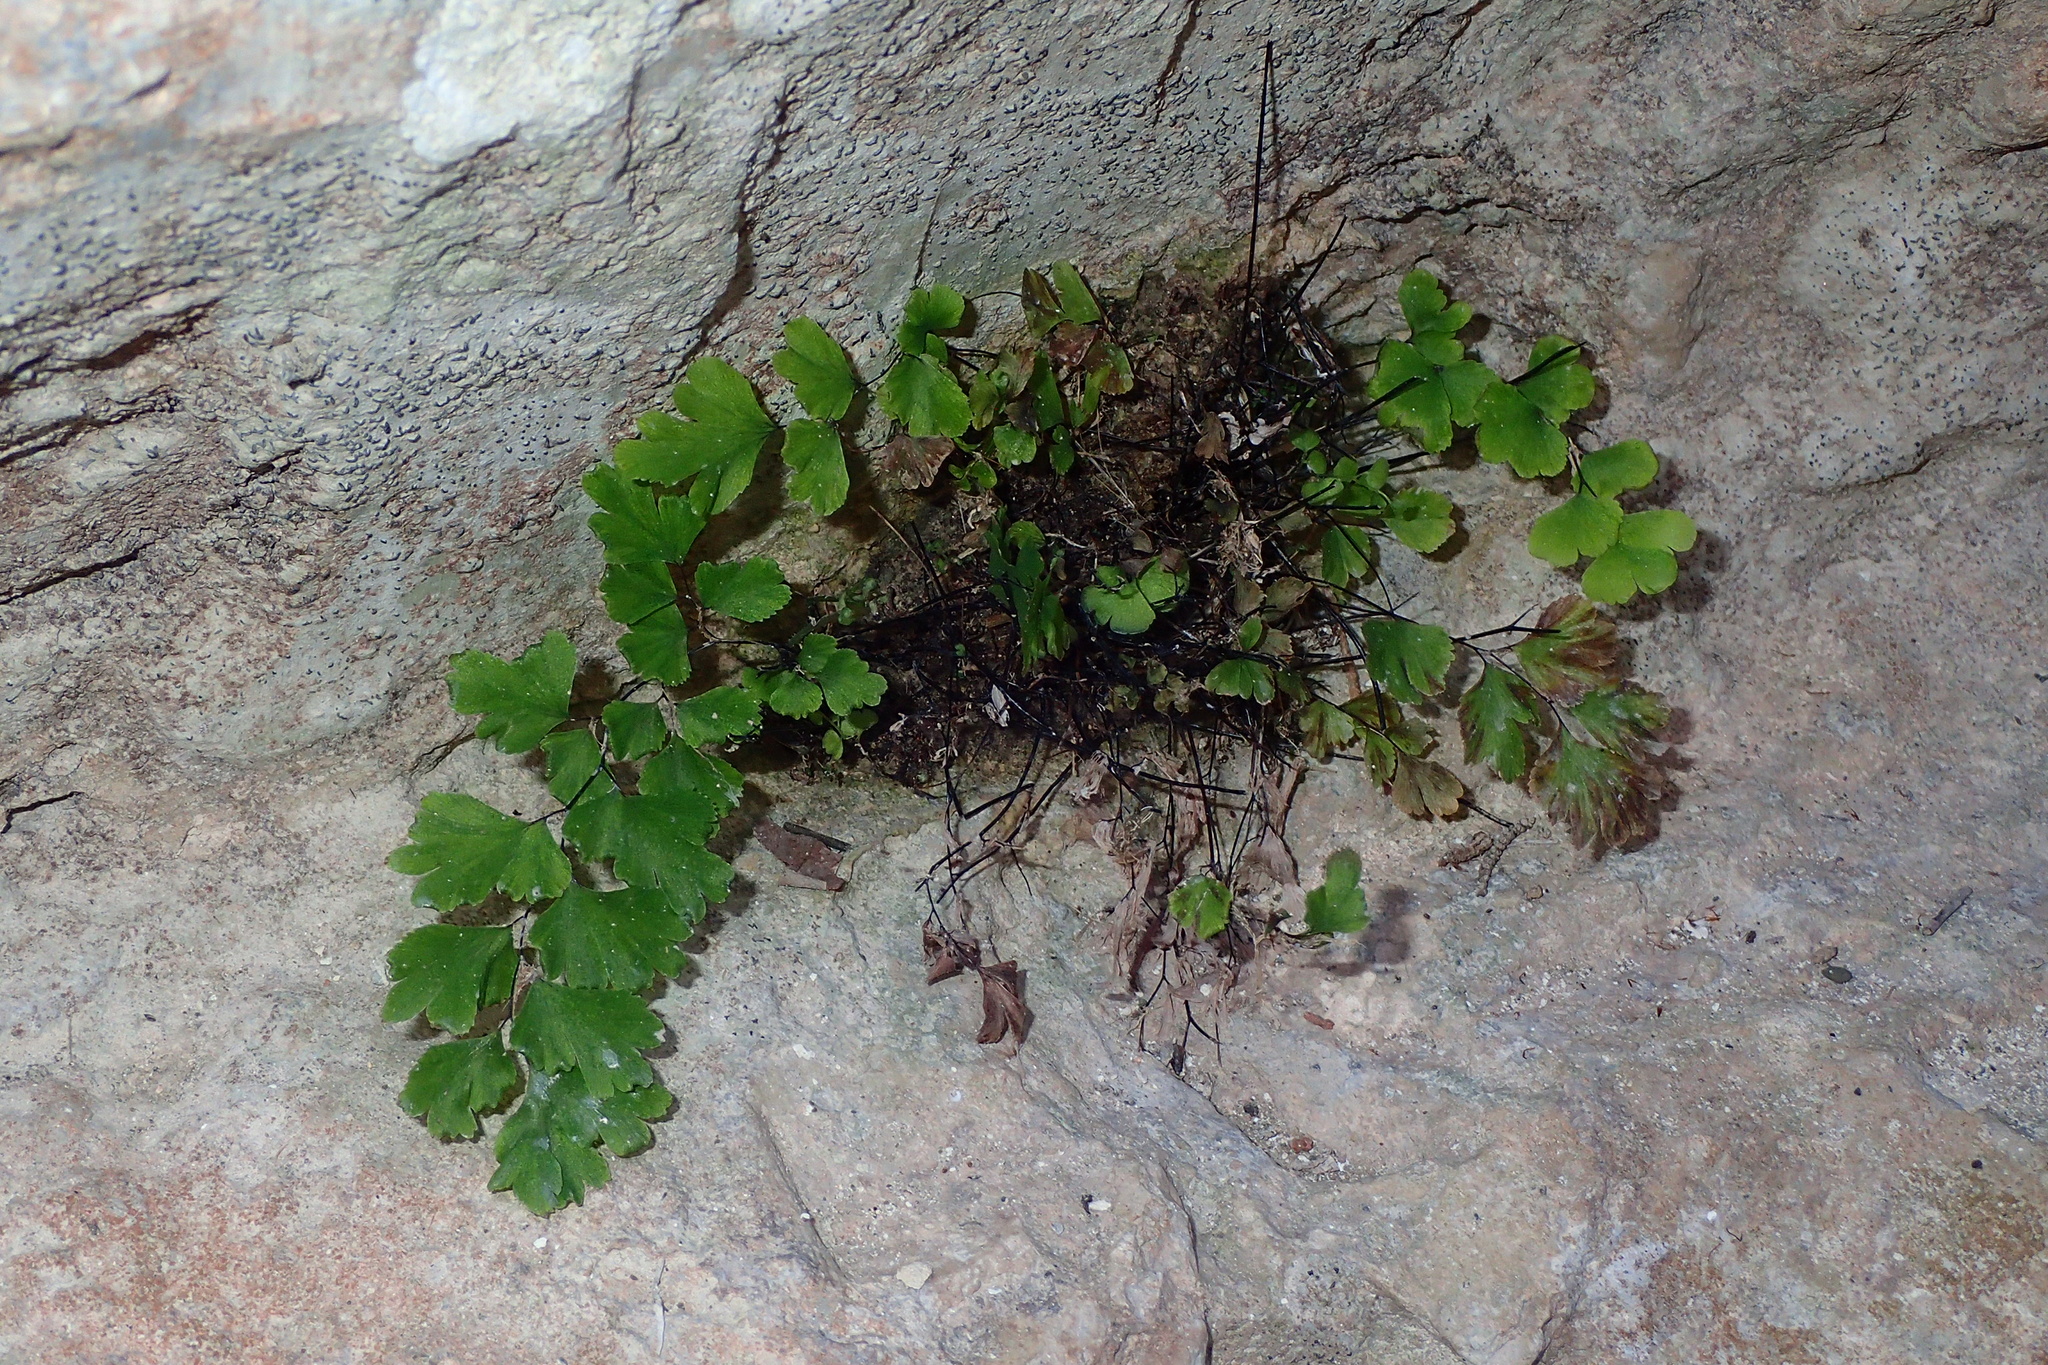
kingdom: Plantae
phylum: Tracheophyta
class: Polypodiopsida
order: Polypodiales
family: Pteridaceae
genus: Adiantum
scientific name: Adiantum capillus-veneris
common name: Maidenhair fern
